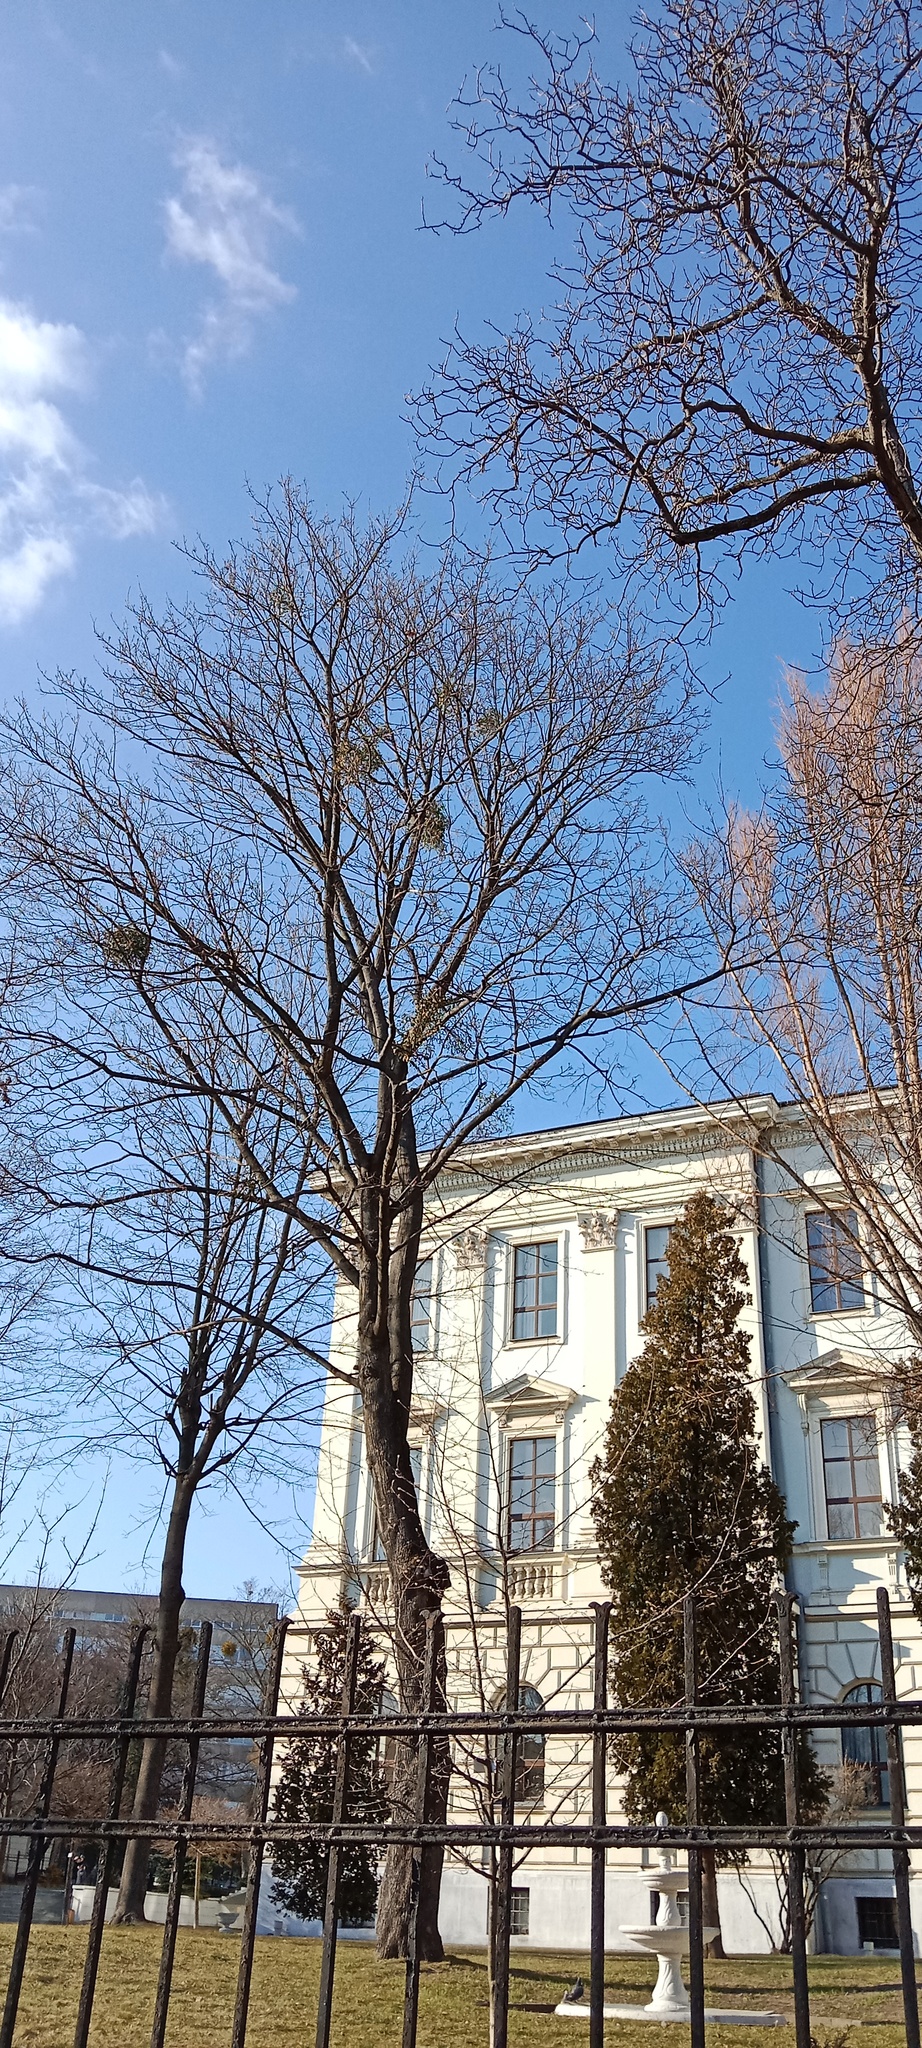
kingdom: Plantae
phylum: Tracheophyta
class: Magnoliopsida
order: Santalales
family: Viscaceae
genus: Viscum
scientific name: Viscum album
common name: Mistletoe
